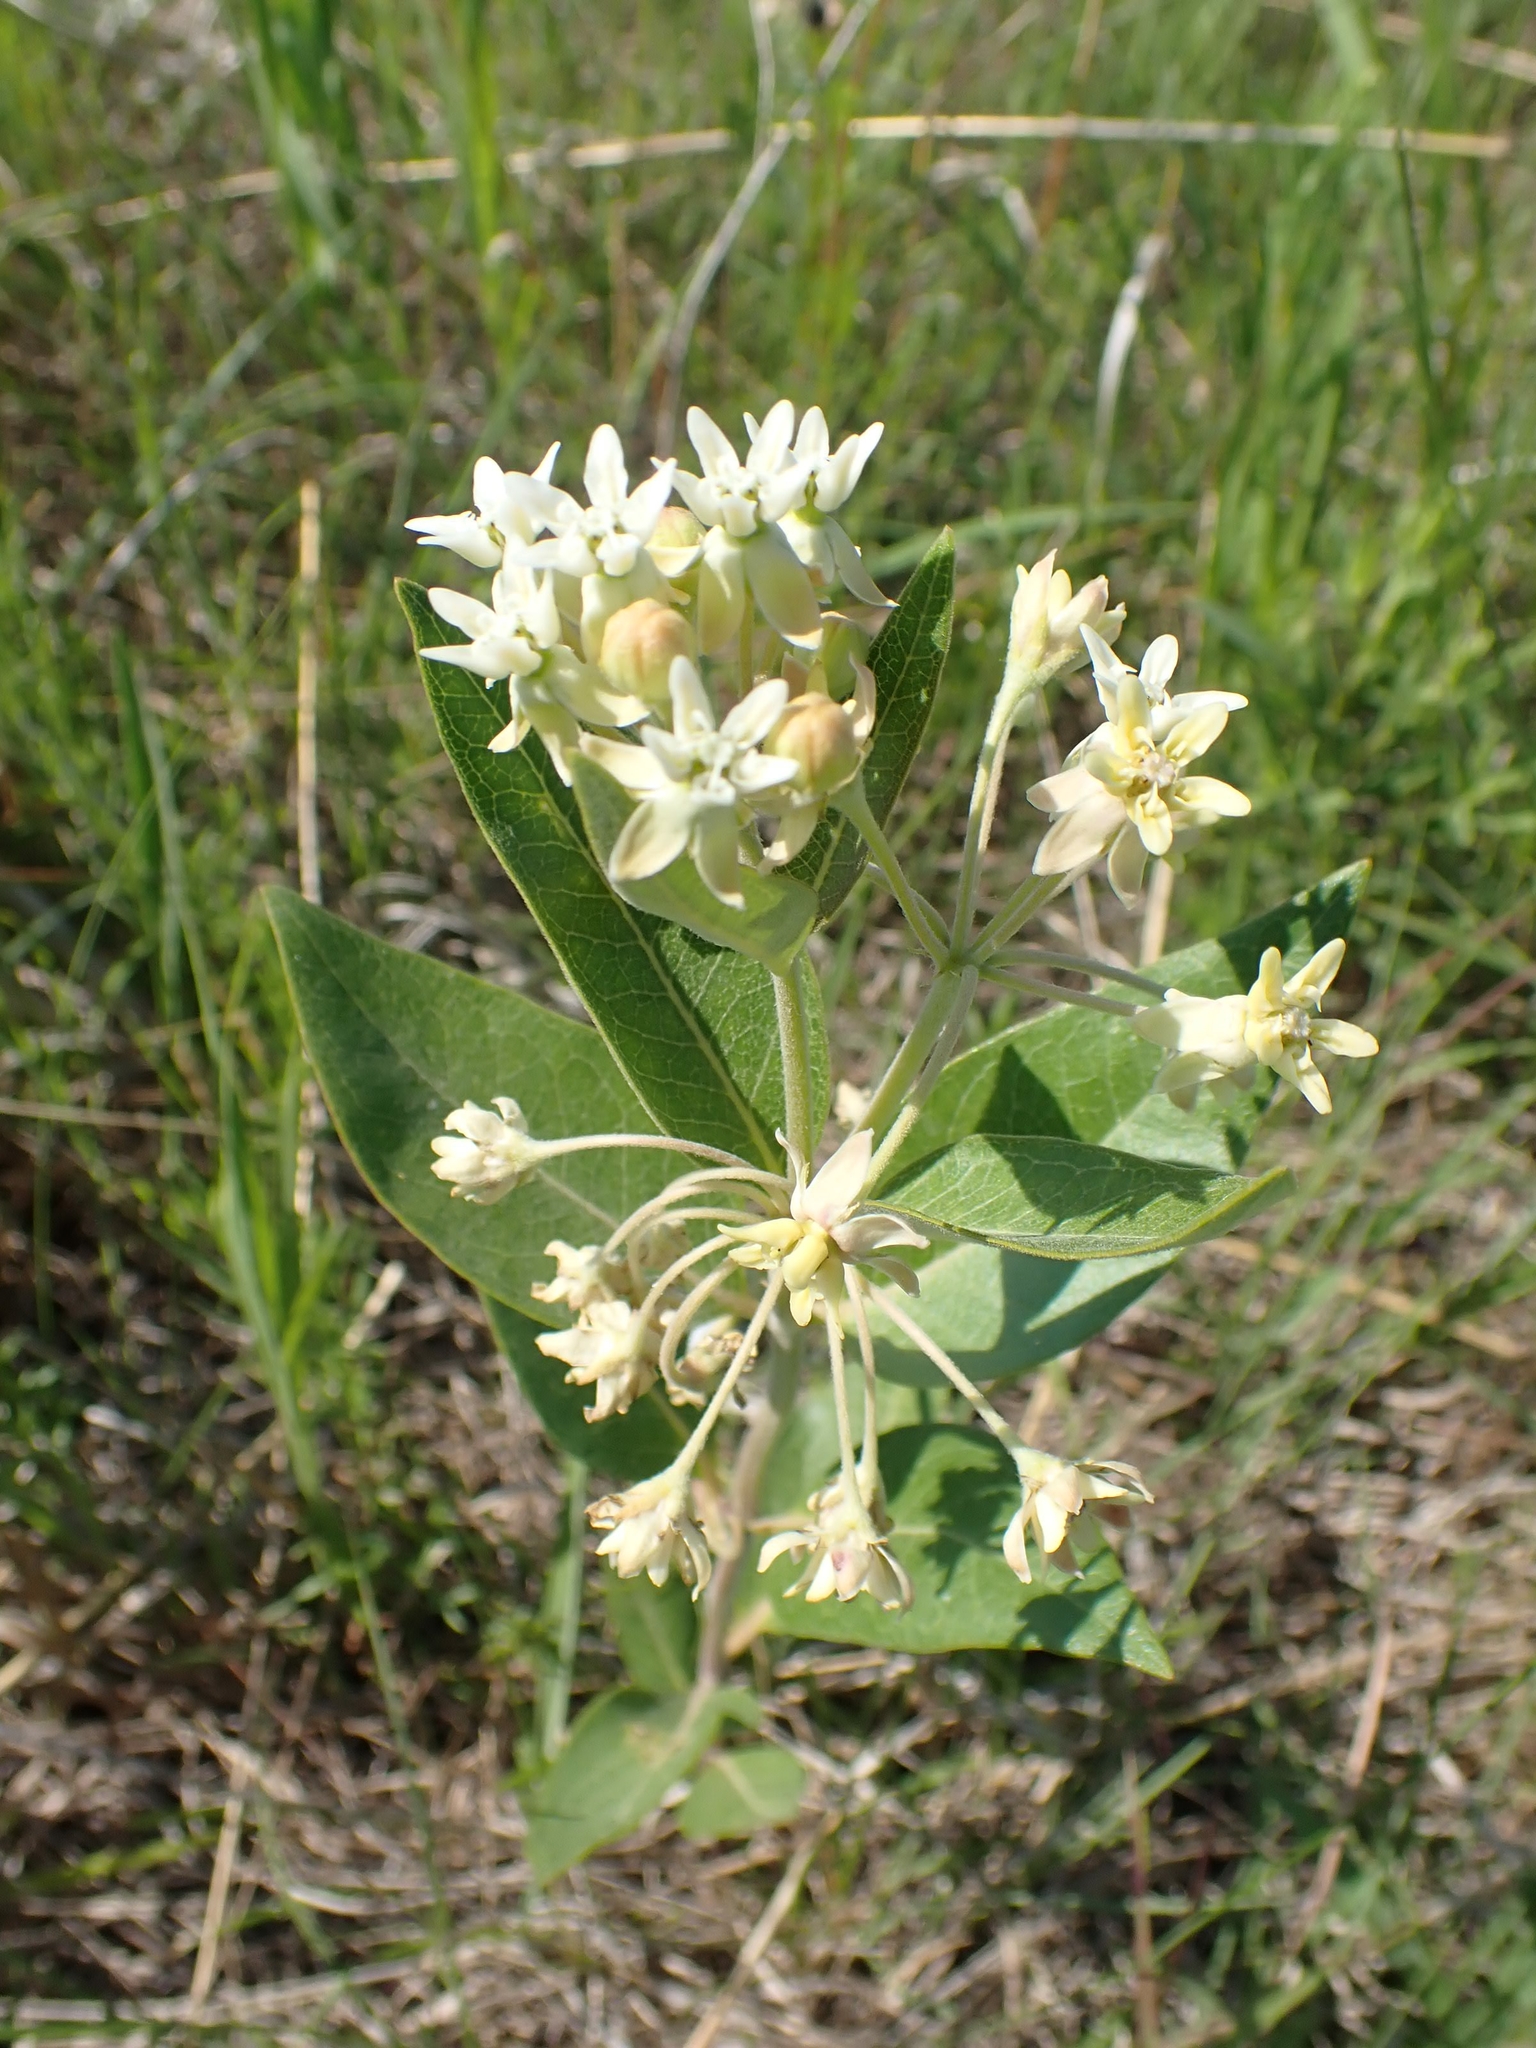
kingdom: Plantae
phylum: Tracheophyta
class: Magnoliopsida
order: Gentianales
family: Apocynaceae
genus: Asclepias
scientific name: Asclepias ovalifolia
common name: Dwarf milkweed
